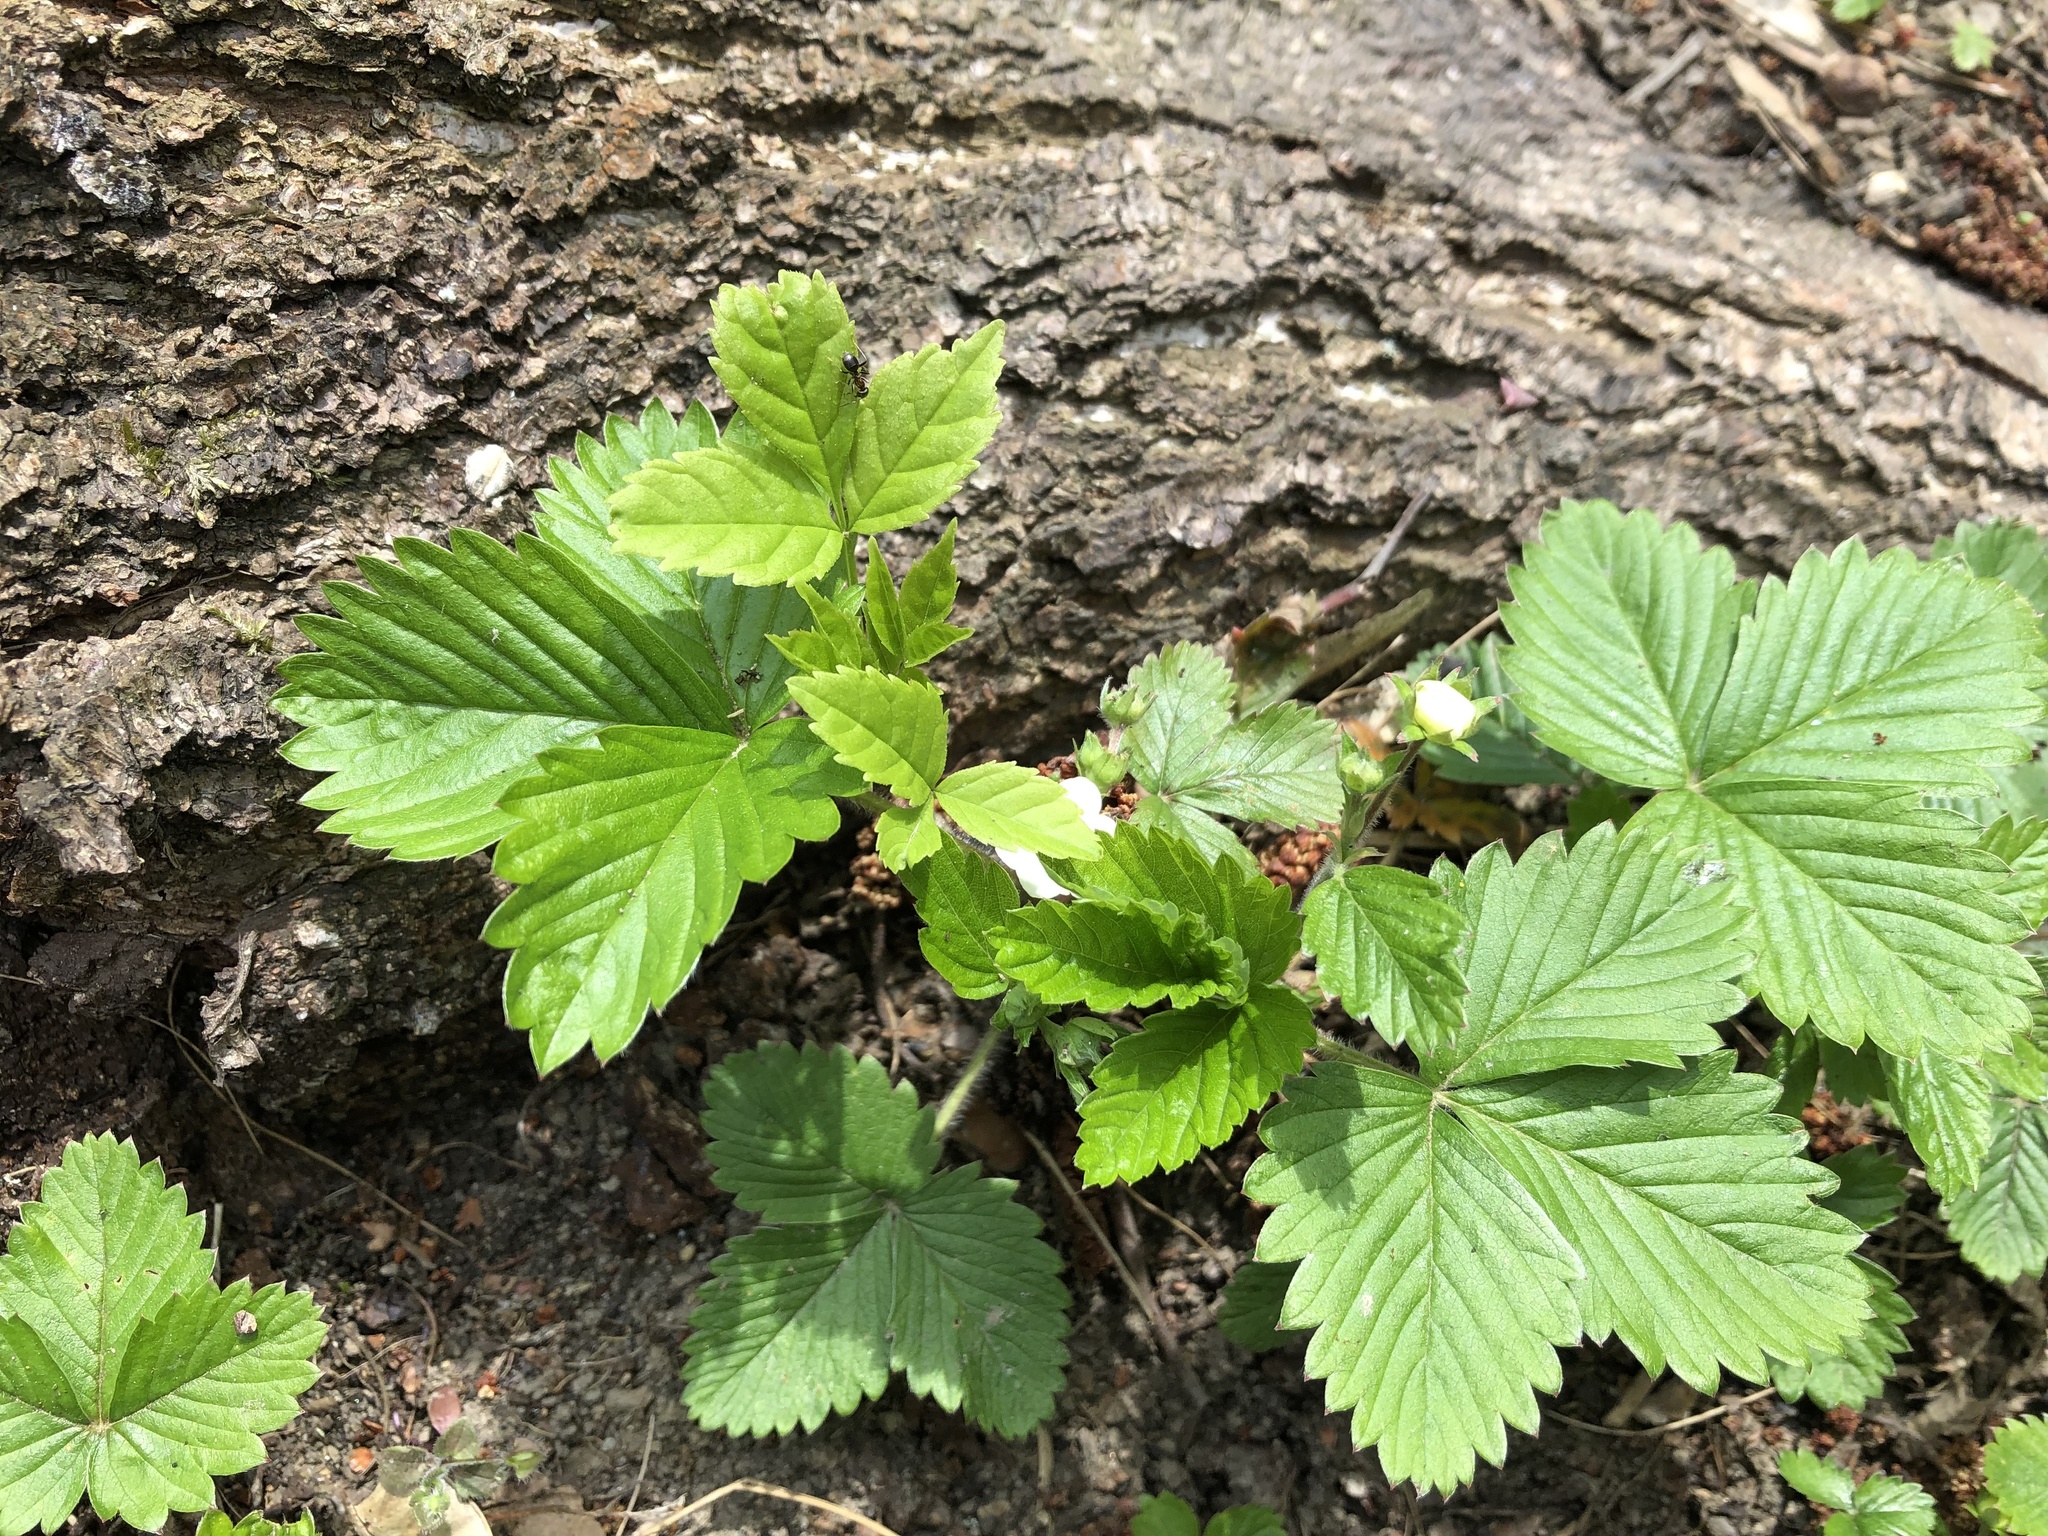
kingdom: Plantae
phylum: Tracheophyta
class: Magnoliopsida
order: Rosales
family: Rosaceae
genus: Fragaria
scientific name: Fragaria vesca
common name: Wild strawberry
